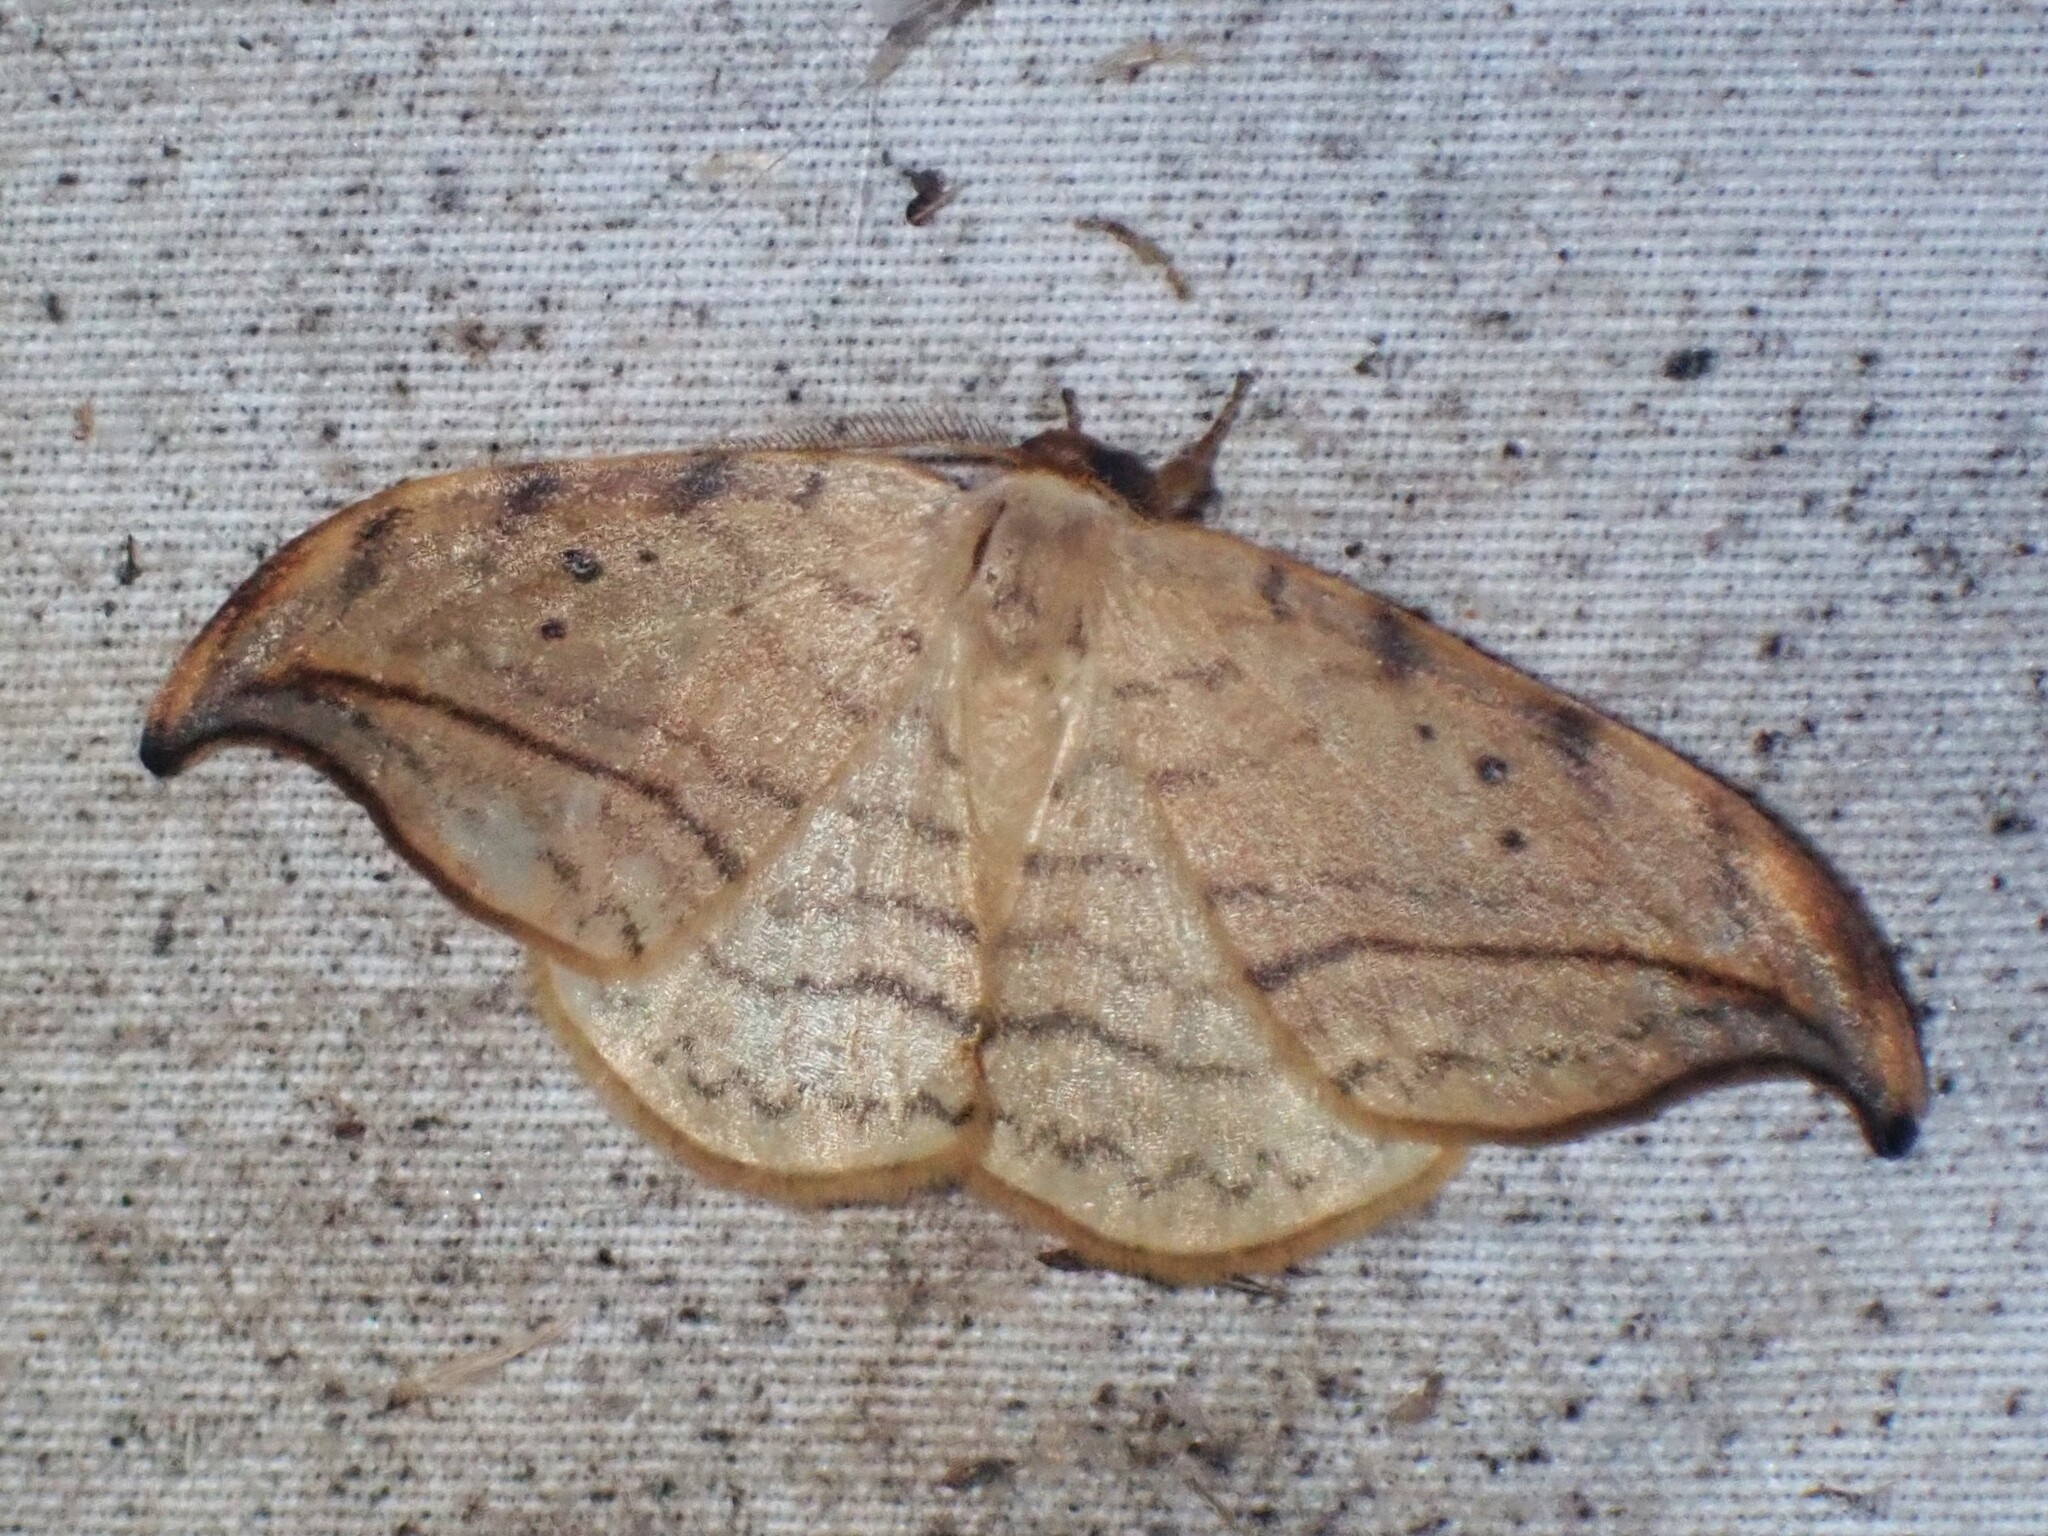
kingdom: Animalia
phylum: Arthropoda
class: Insecta
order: Lepidoptera
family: Drepanidae
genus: Drepana
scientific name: Drepana arcuata
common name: Arched hooktip moth
